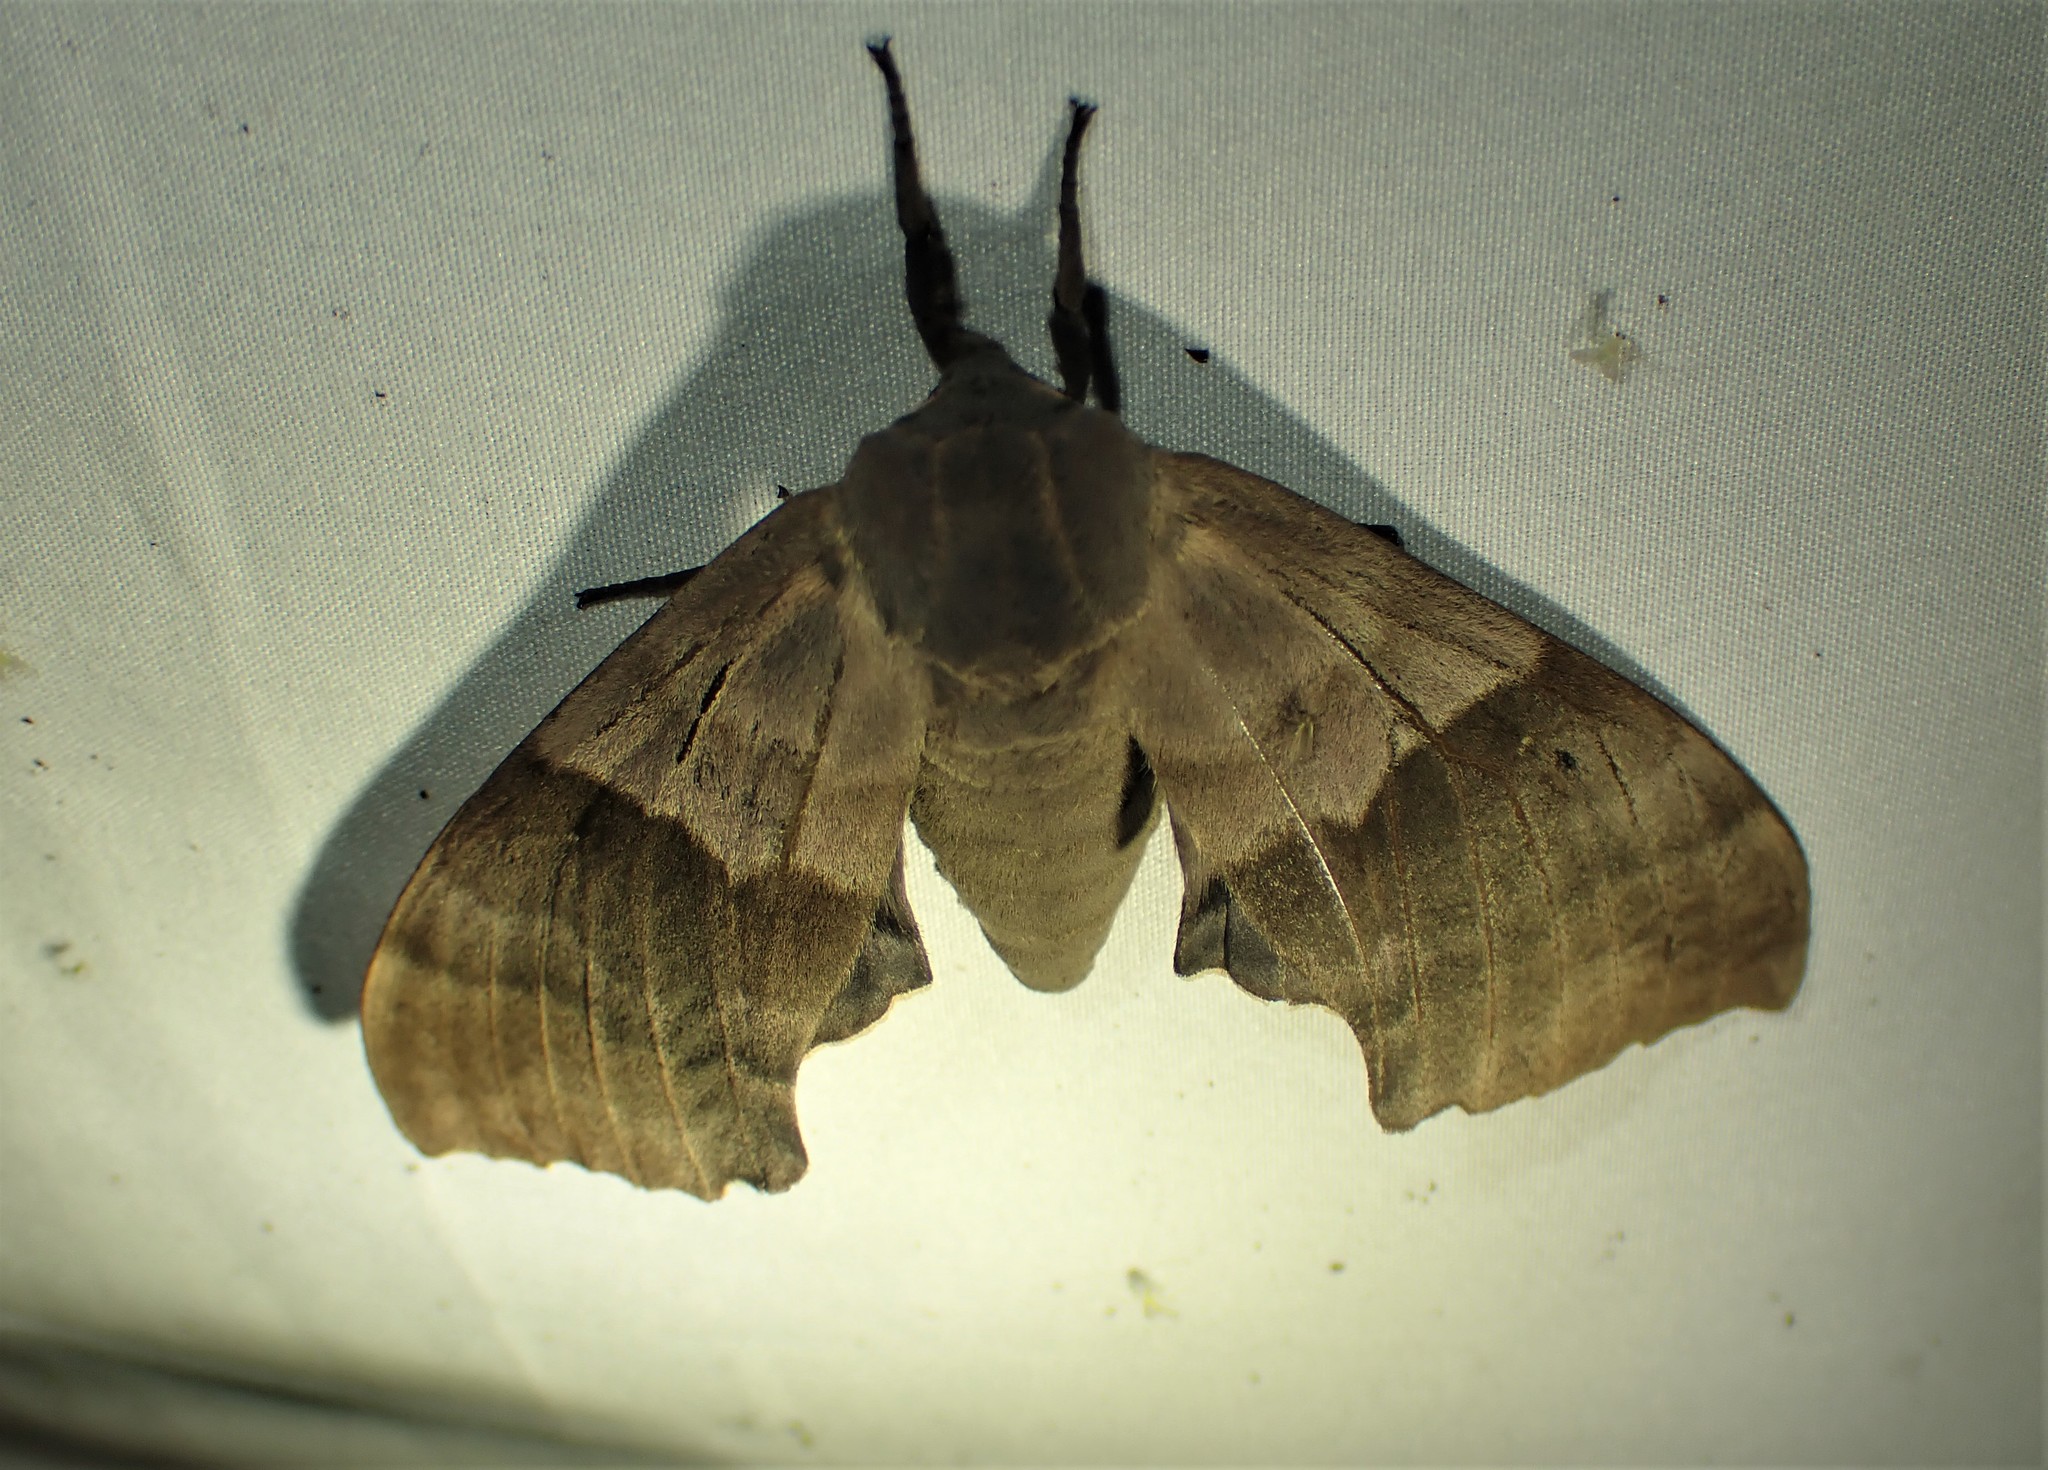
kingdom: Animalia
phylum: Arthropoda
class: Insecta
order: Lepidoptera
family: Sphingidae
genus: Pachysphinx
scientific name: Pachysphinx modesta
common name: Big poplar sphinx
